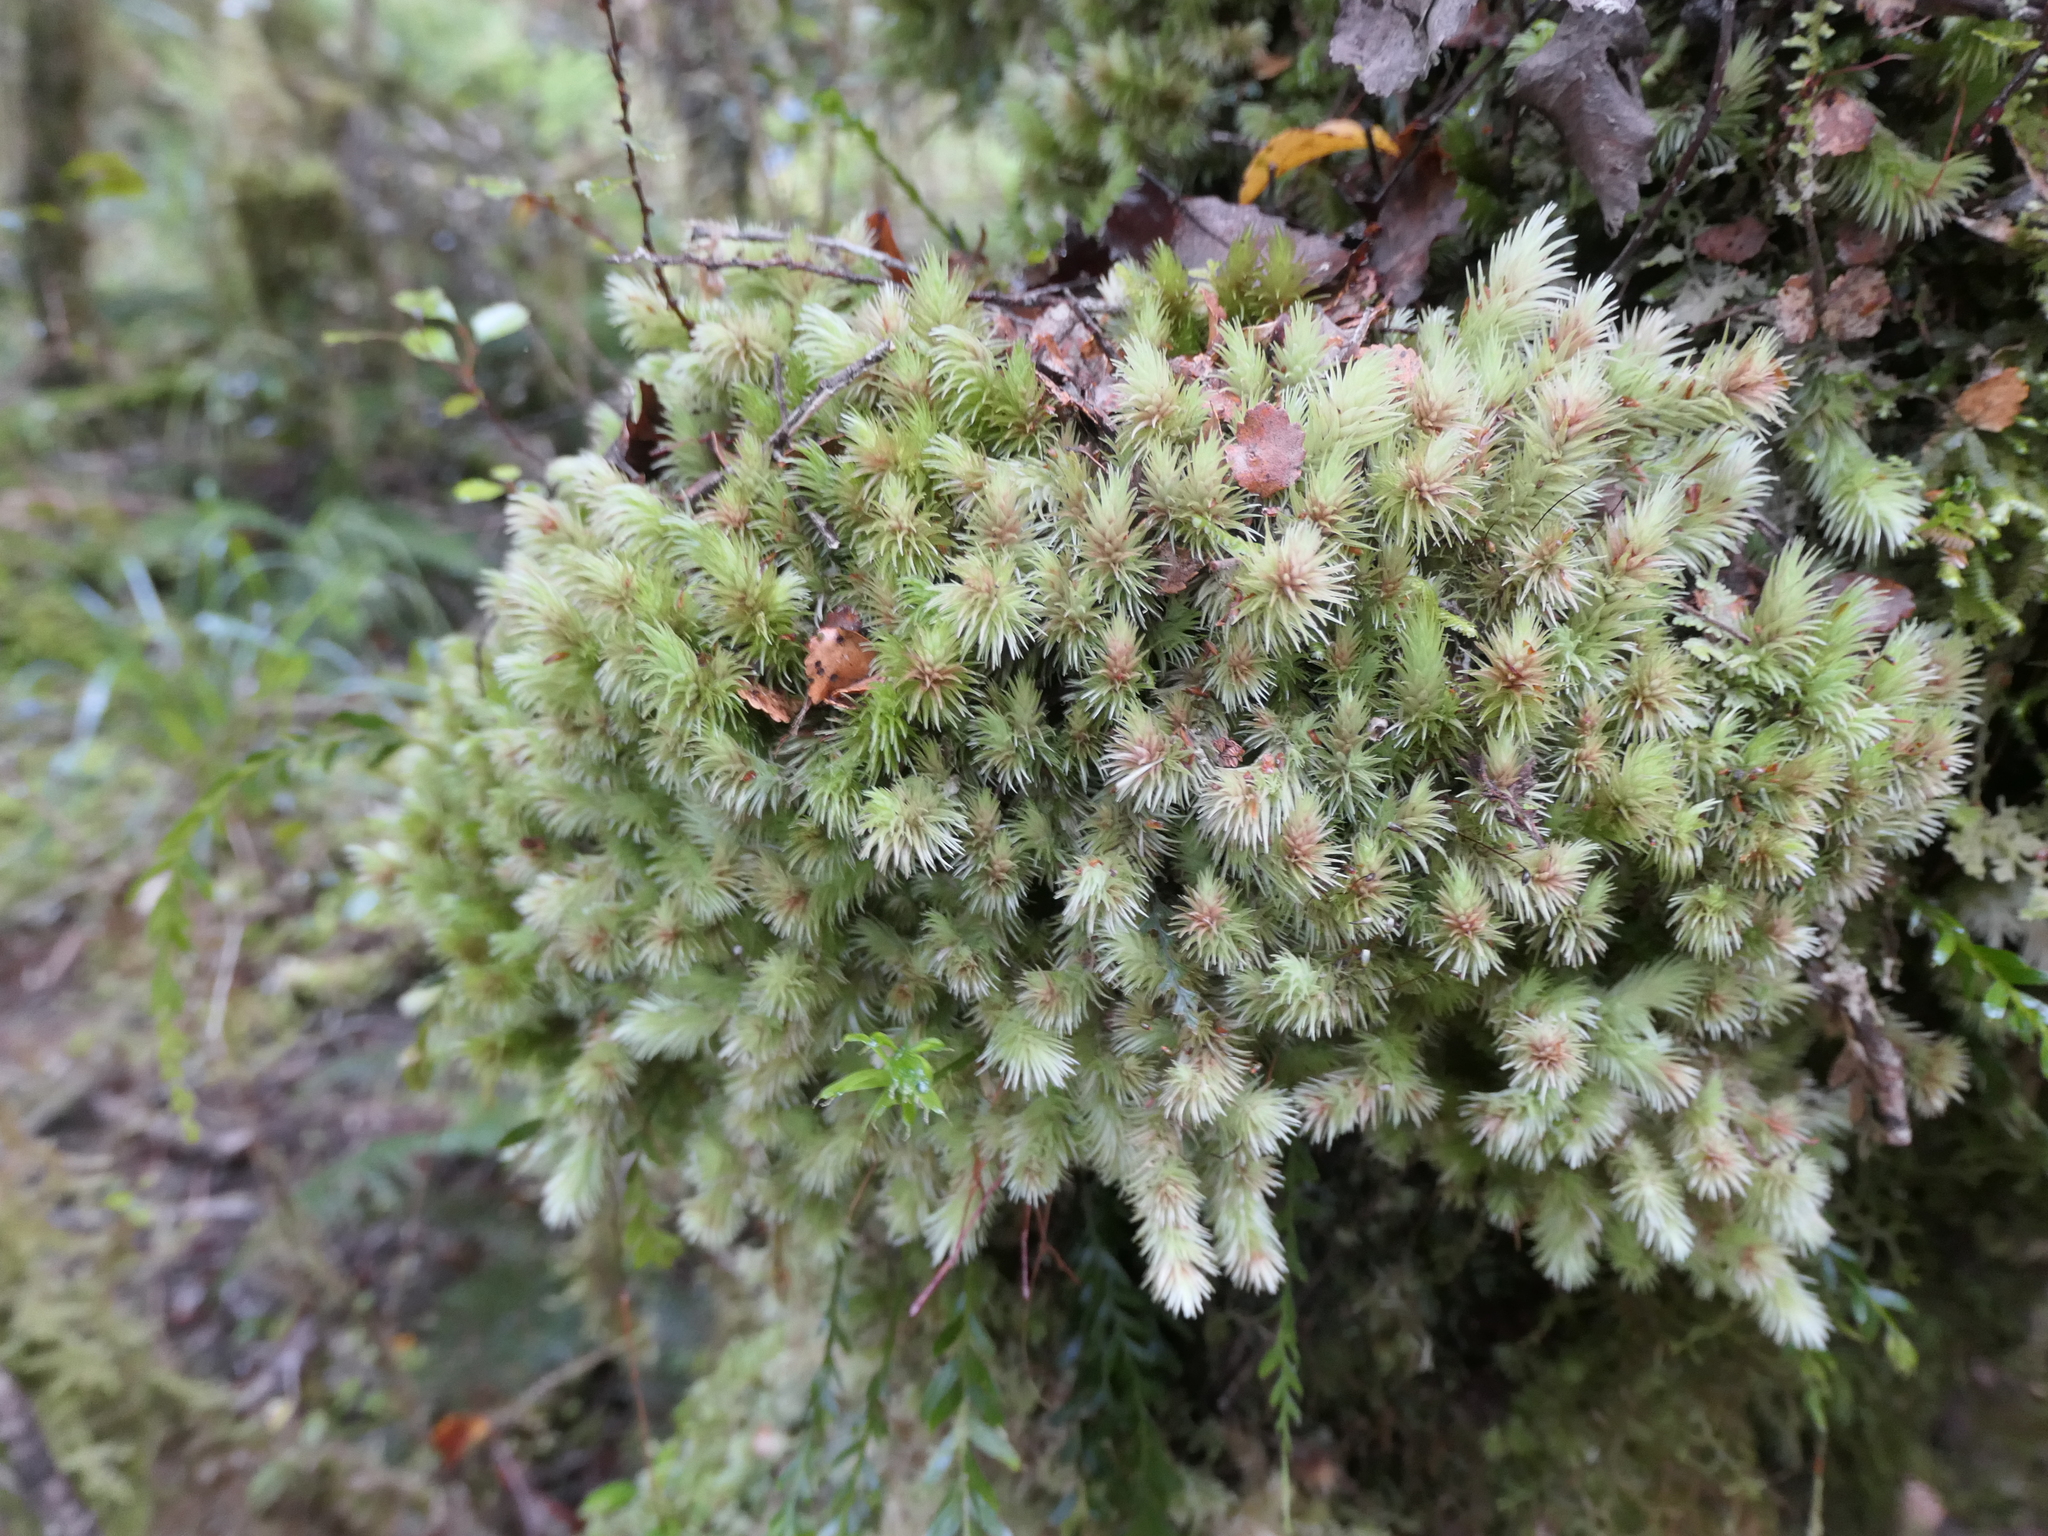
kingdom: Plantae
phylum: Bryophyta
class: Bryopsida
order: Dicranales
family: Leucobryaceae
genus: Leucobryum
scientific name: Leucobryum javense
